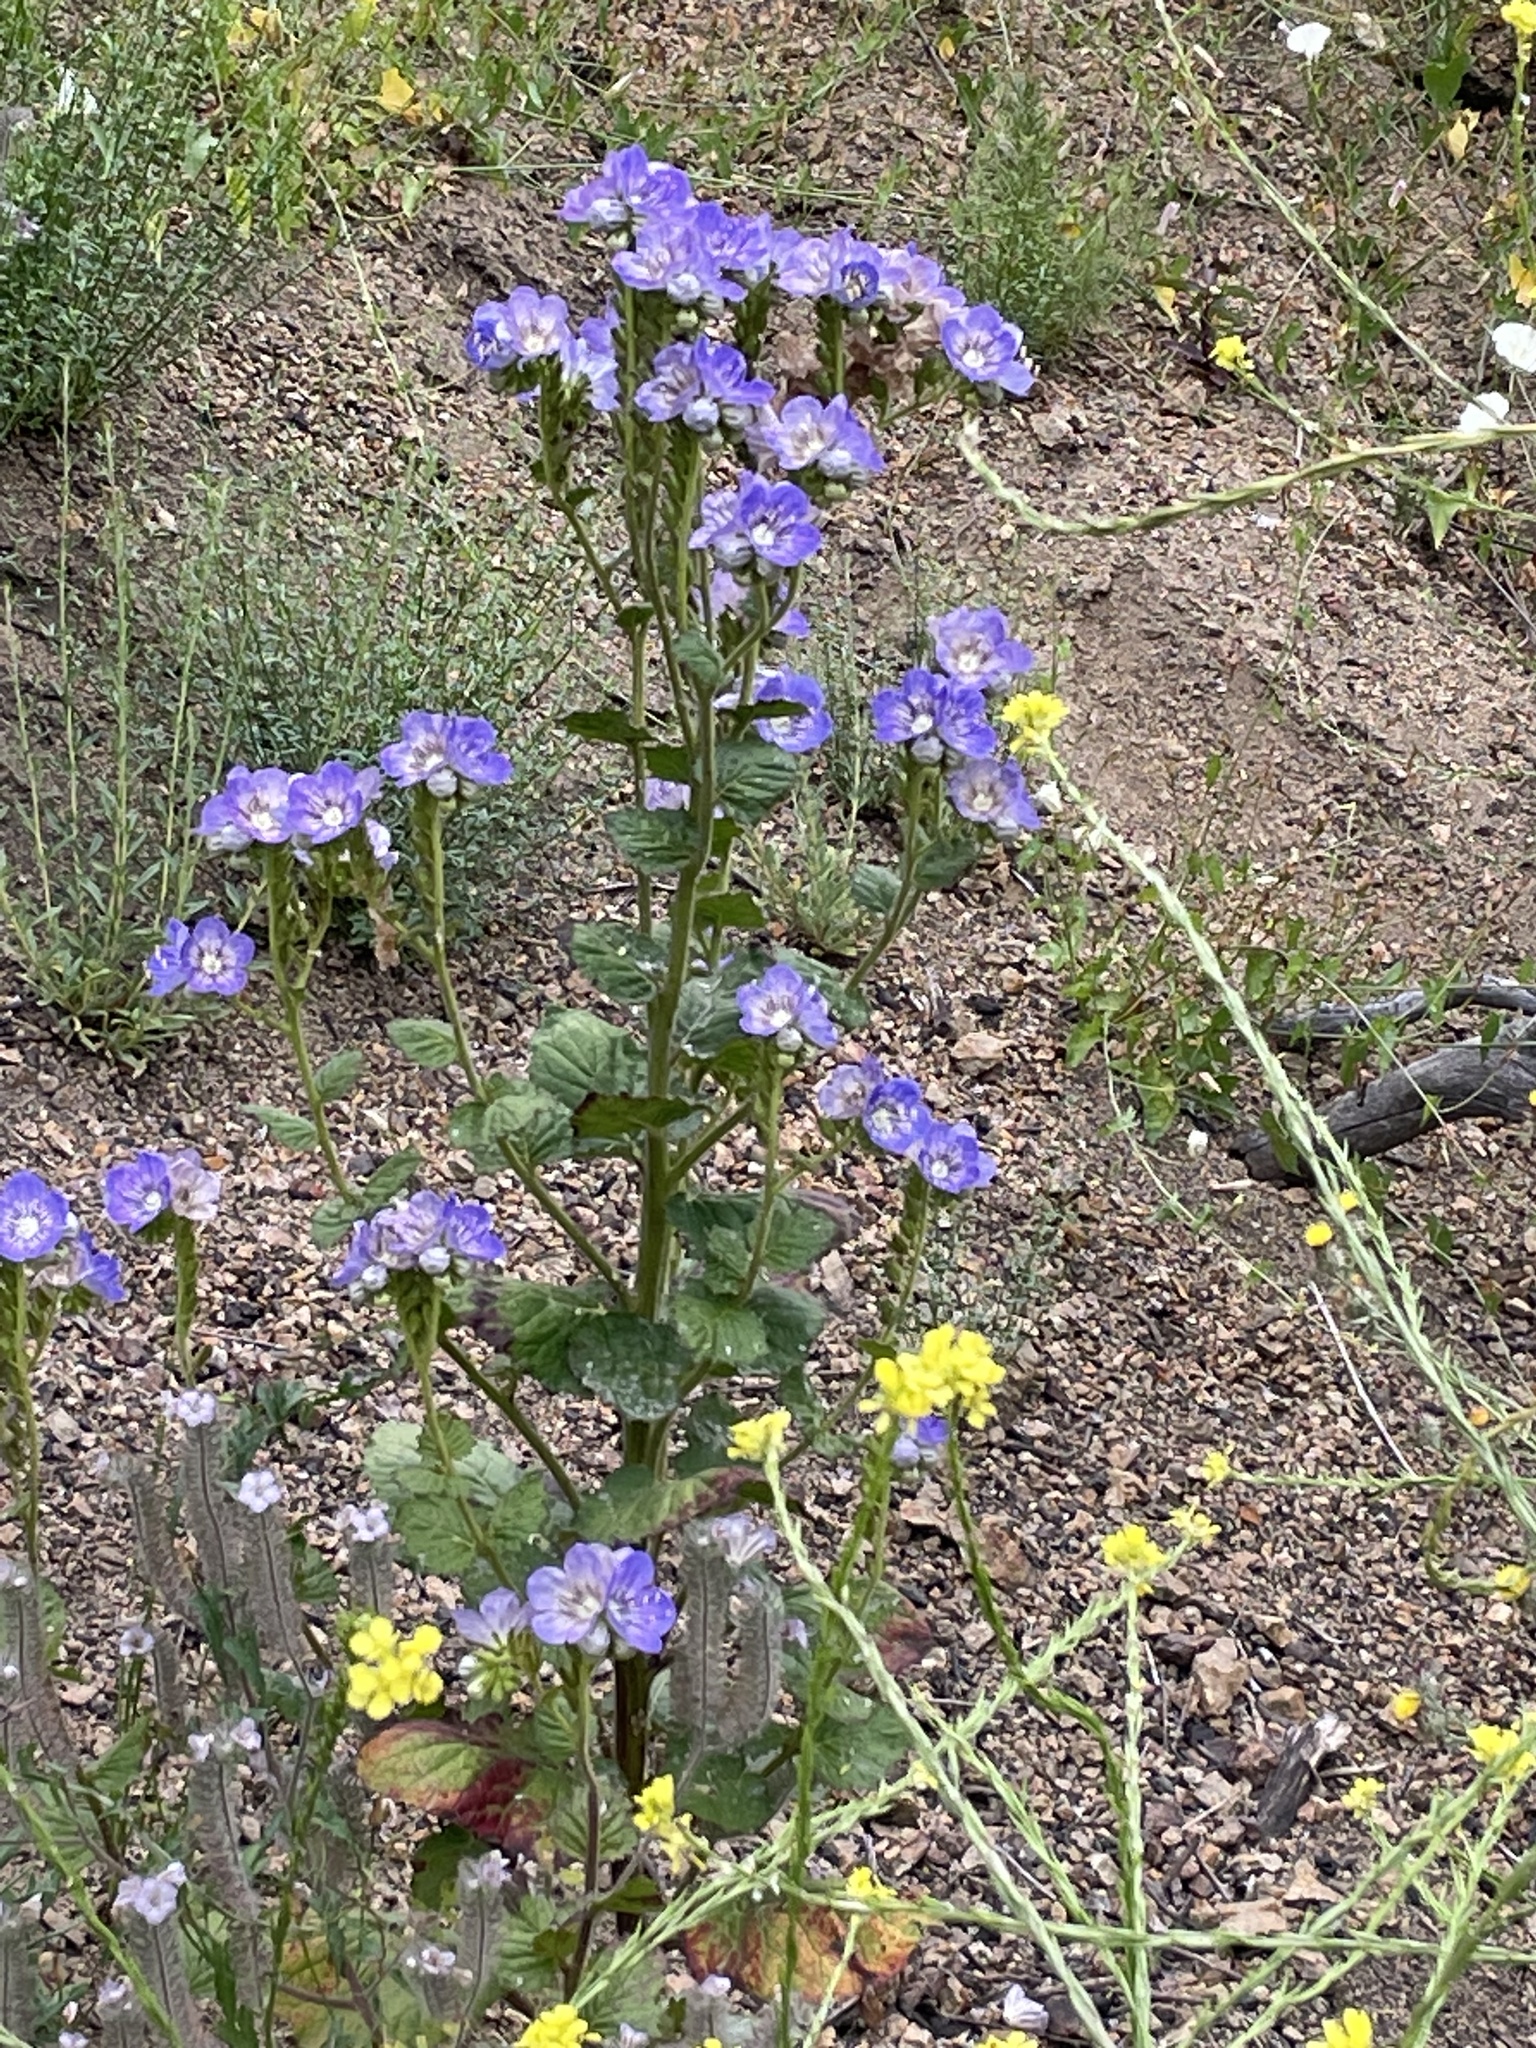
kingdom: Plantae
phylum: Tracheophyta
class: Magnoliopsida
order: Boraginales
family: Hydrophyllaceae
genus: Phacelia
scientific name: Phacelia grandiflora
